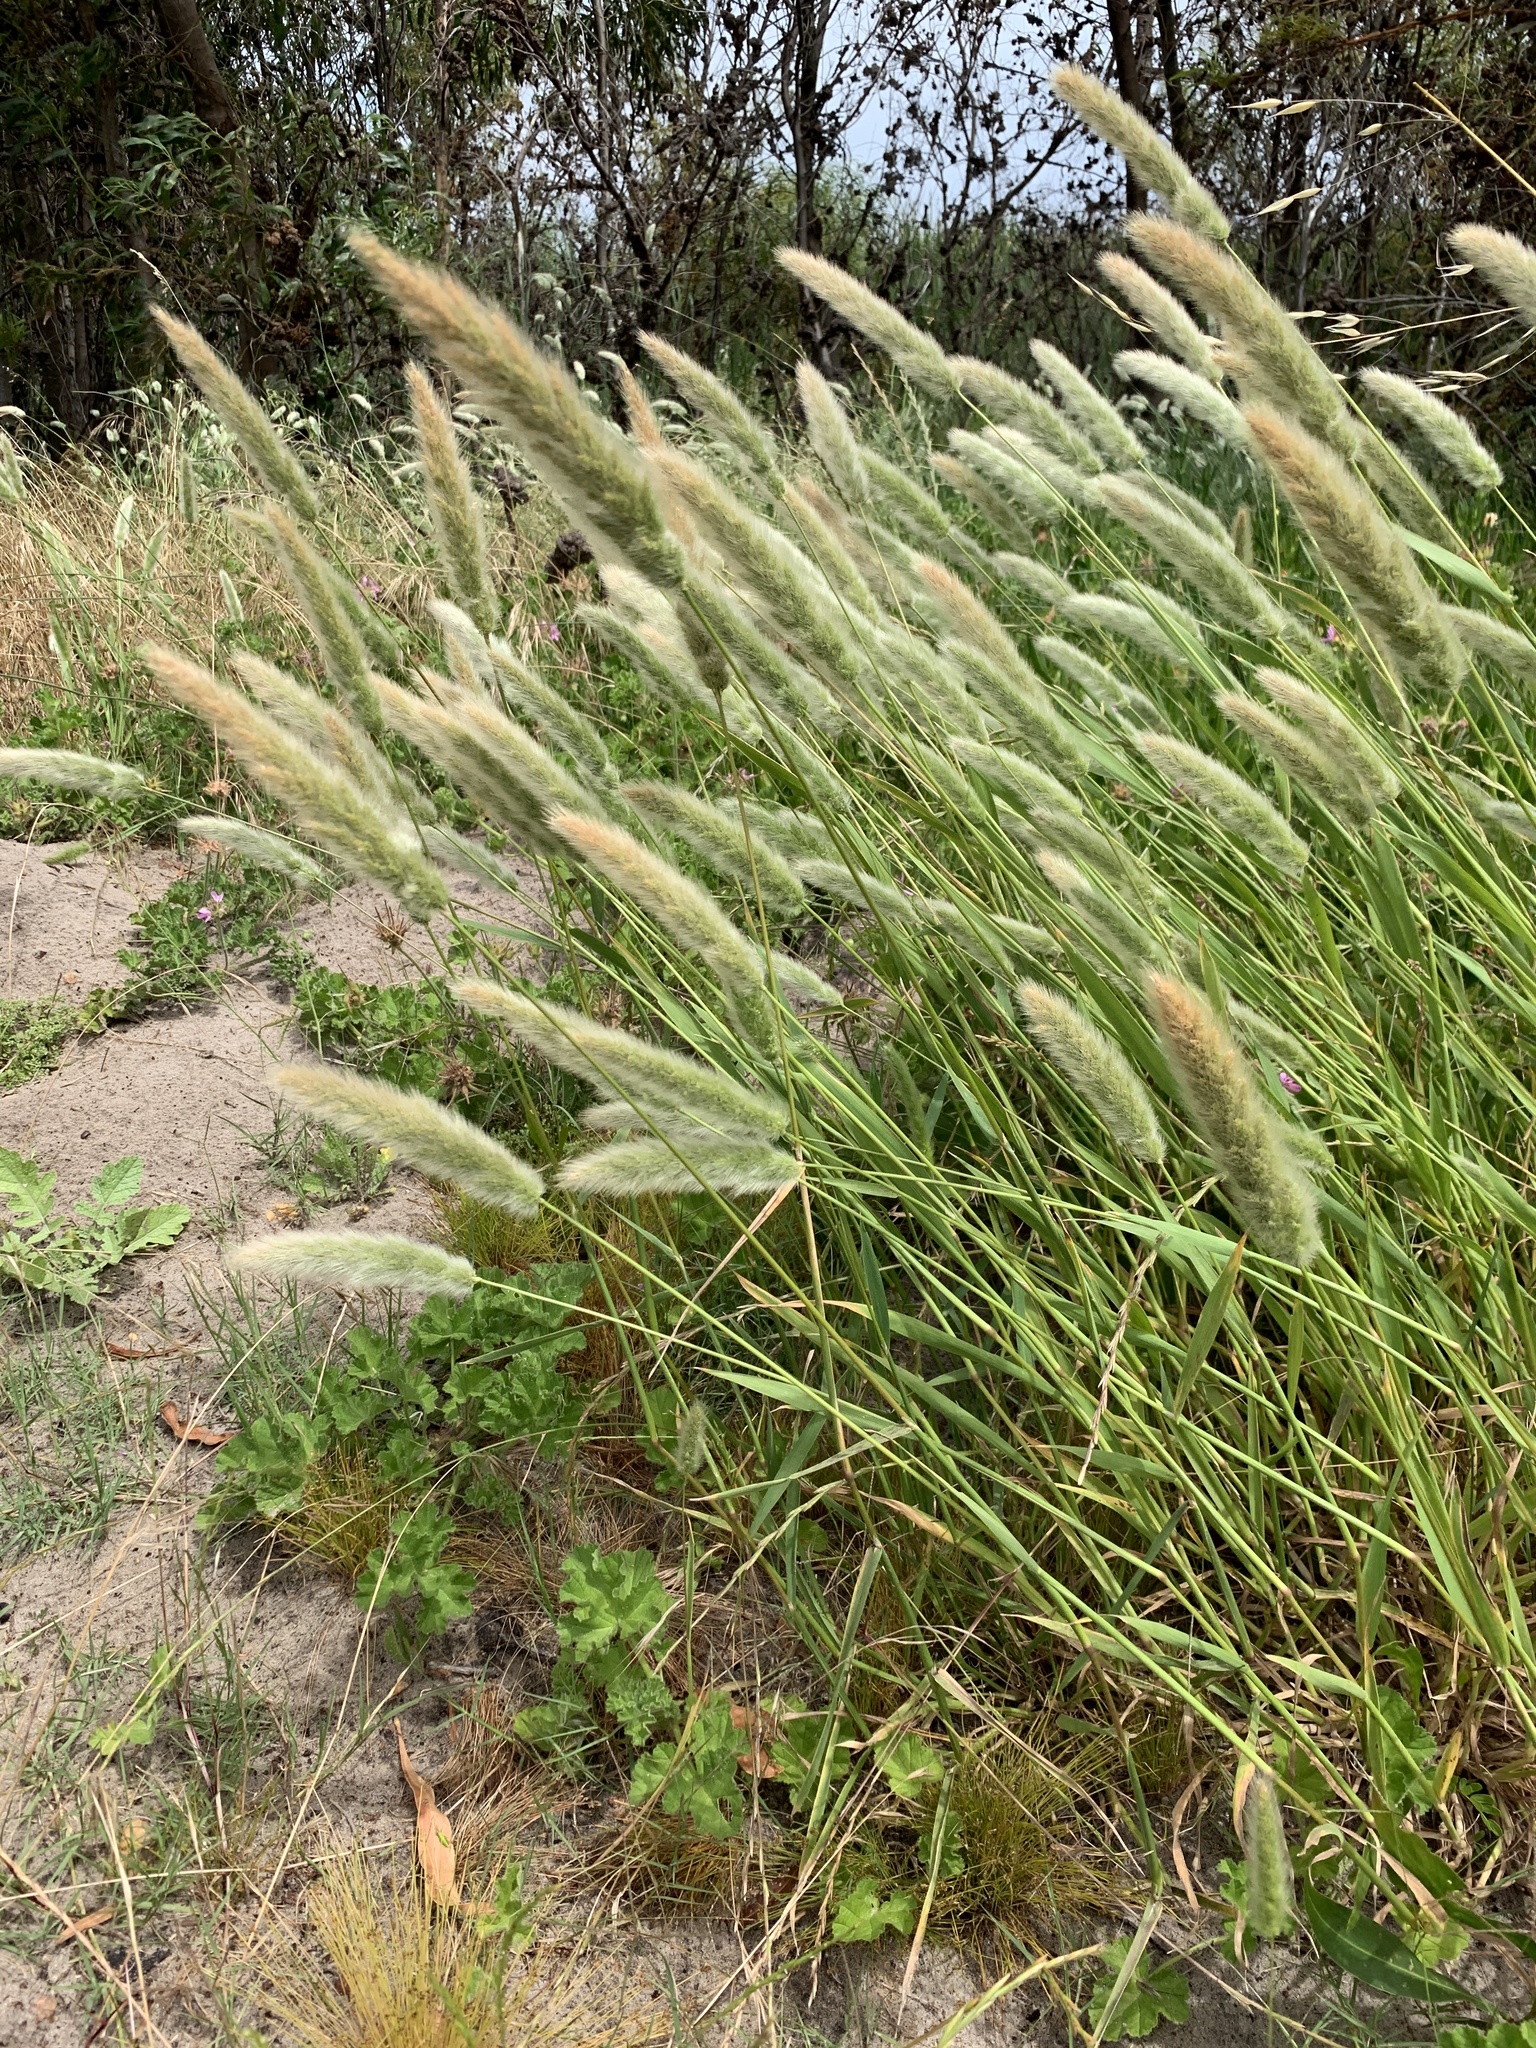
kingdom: Plantae
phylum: Tracheophyta
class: Liliopsida
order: Poales
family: Poaceae
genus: Polypogon
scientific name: Polypogon monspeliensis
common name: Annual rabbitsfoot grass
